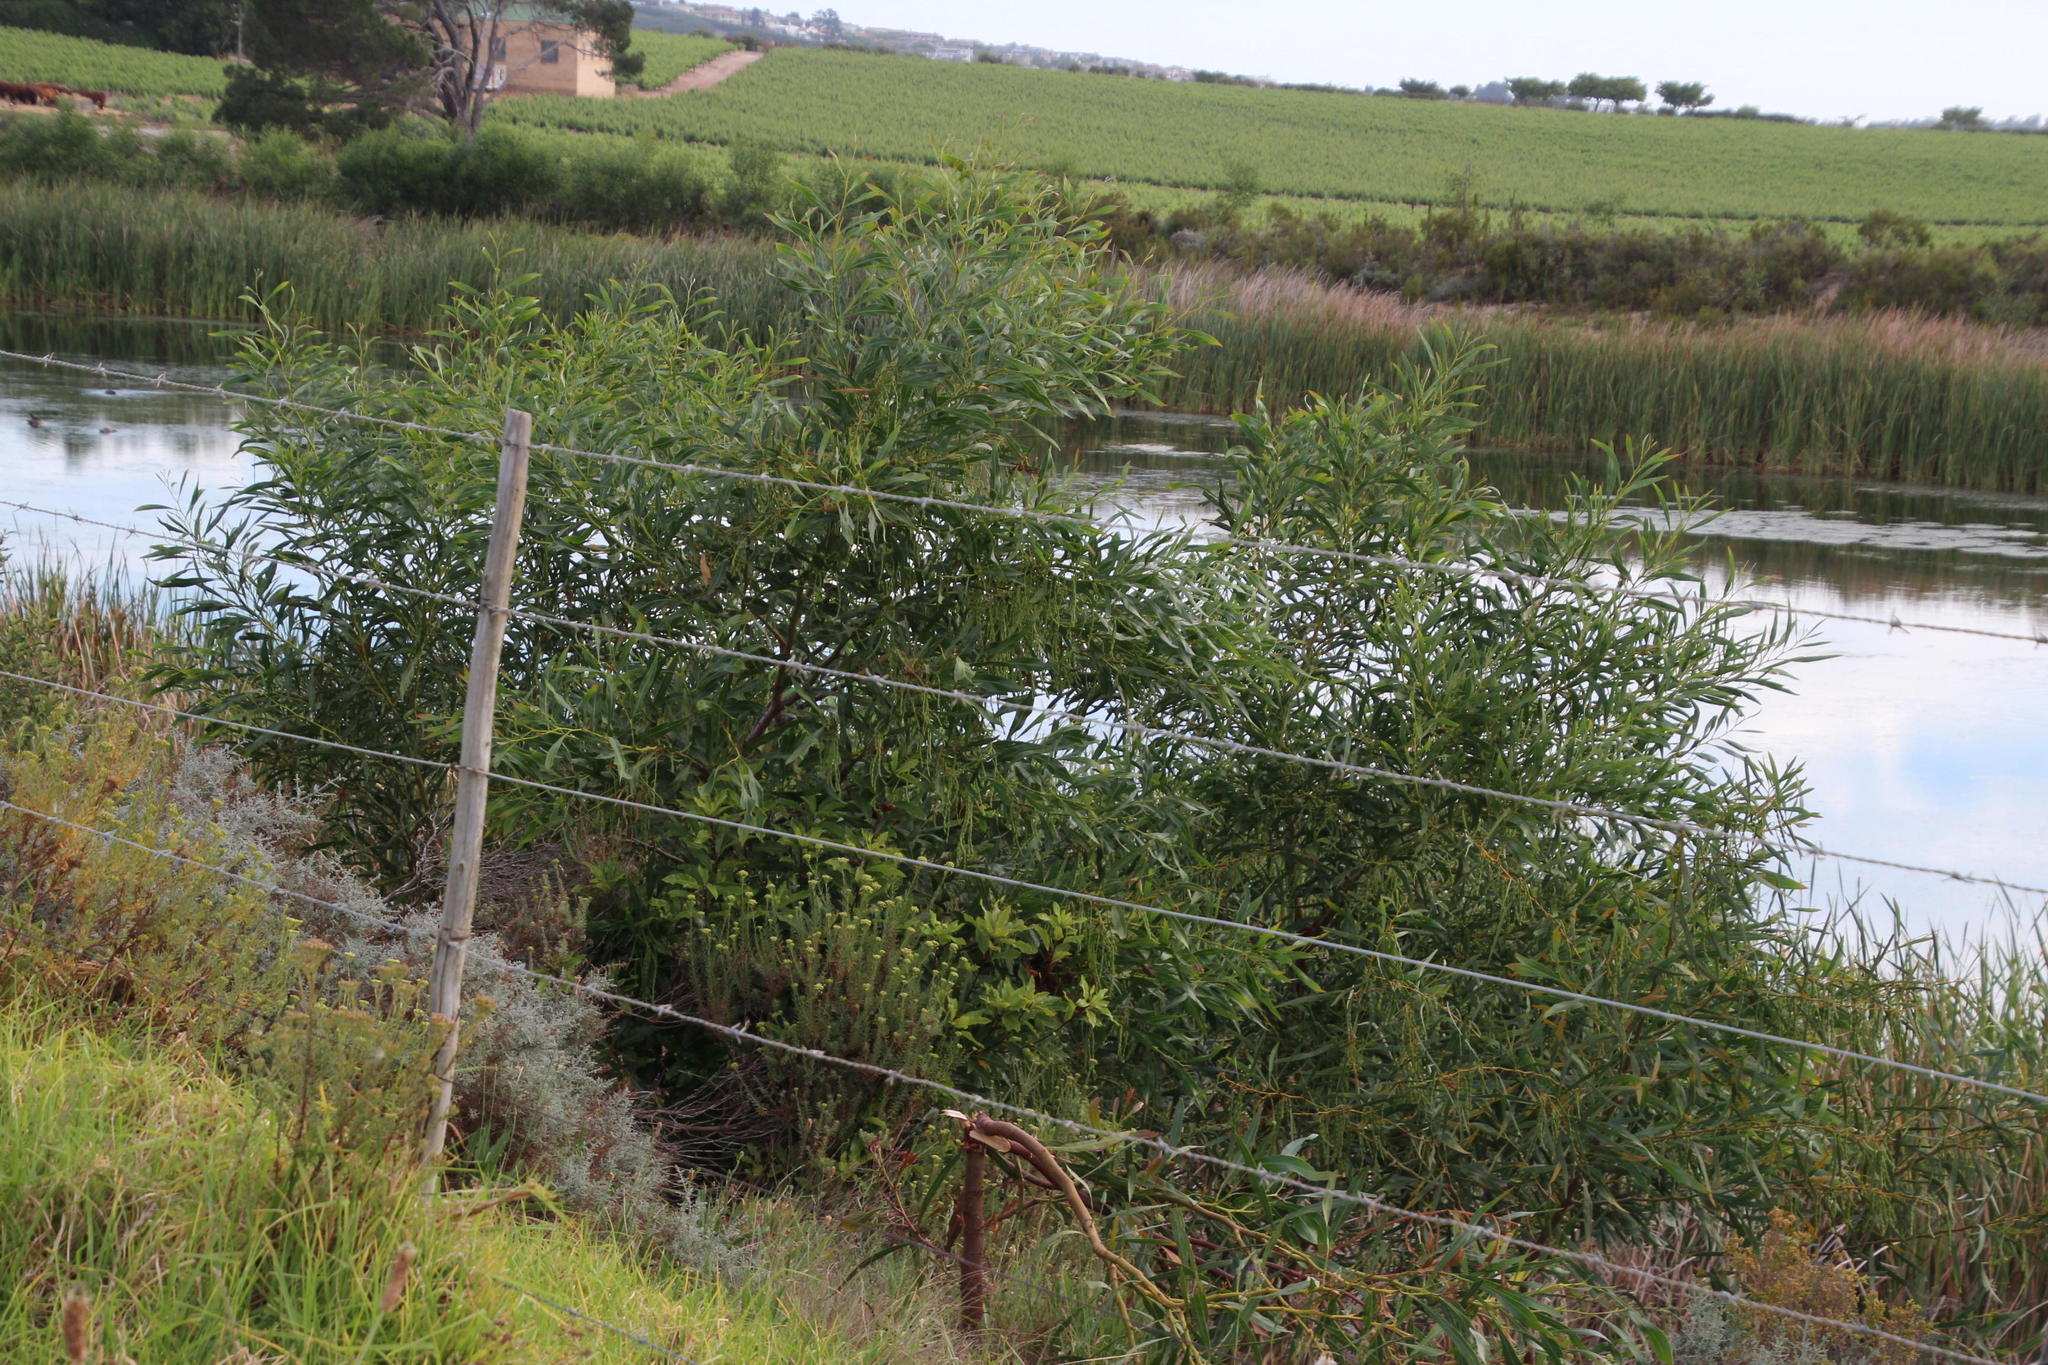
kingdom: Plantae
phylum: Tracheophyta
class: Magnoliopsida
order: Fabales
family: Fabaceae
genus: Acacia
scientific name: Acacia saligna
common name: Orange wattle
